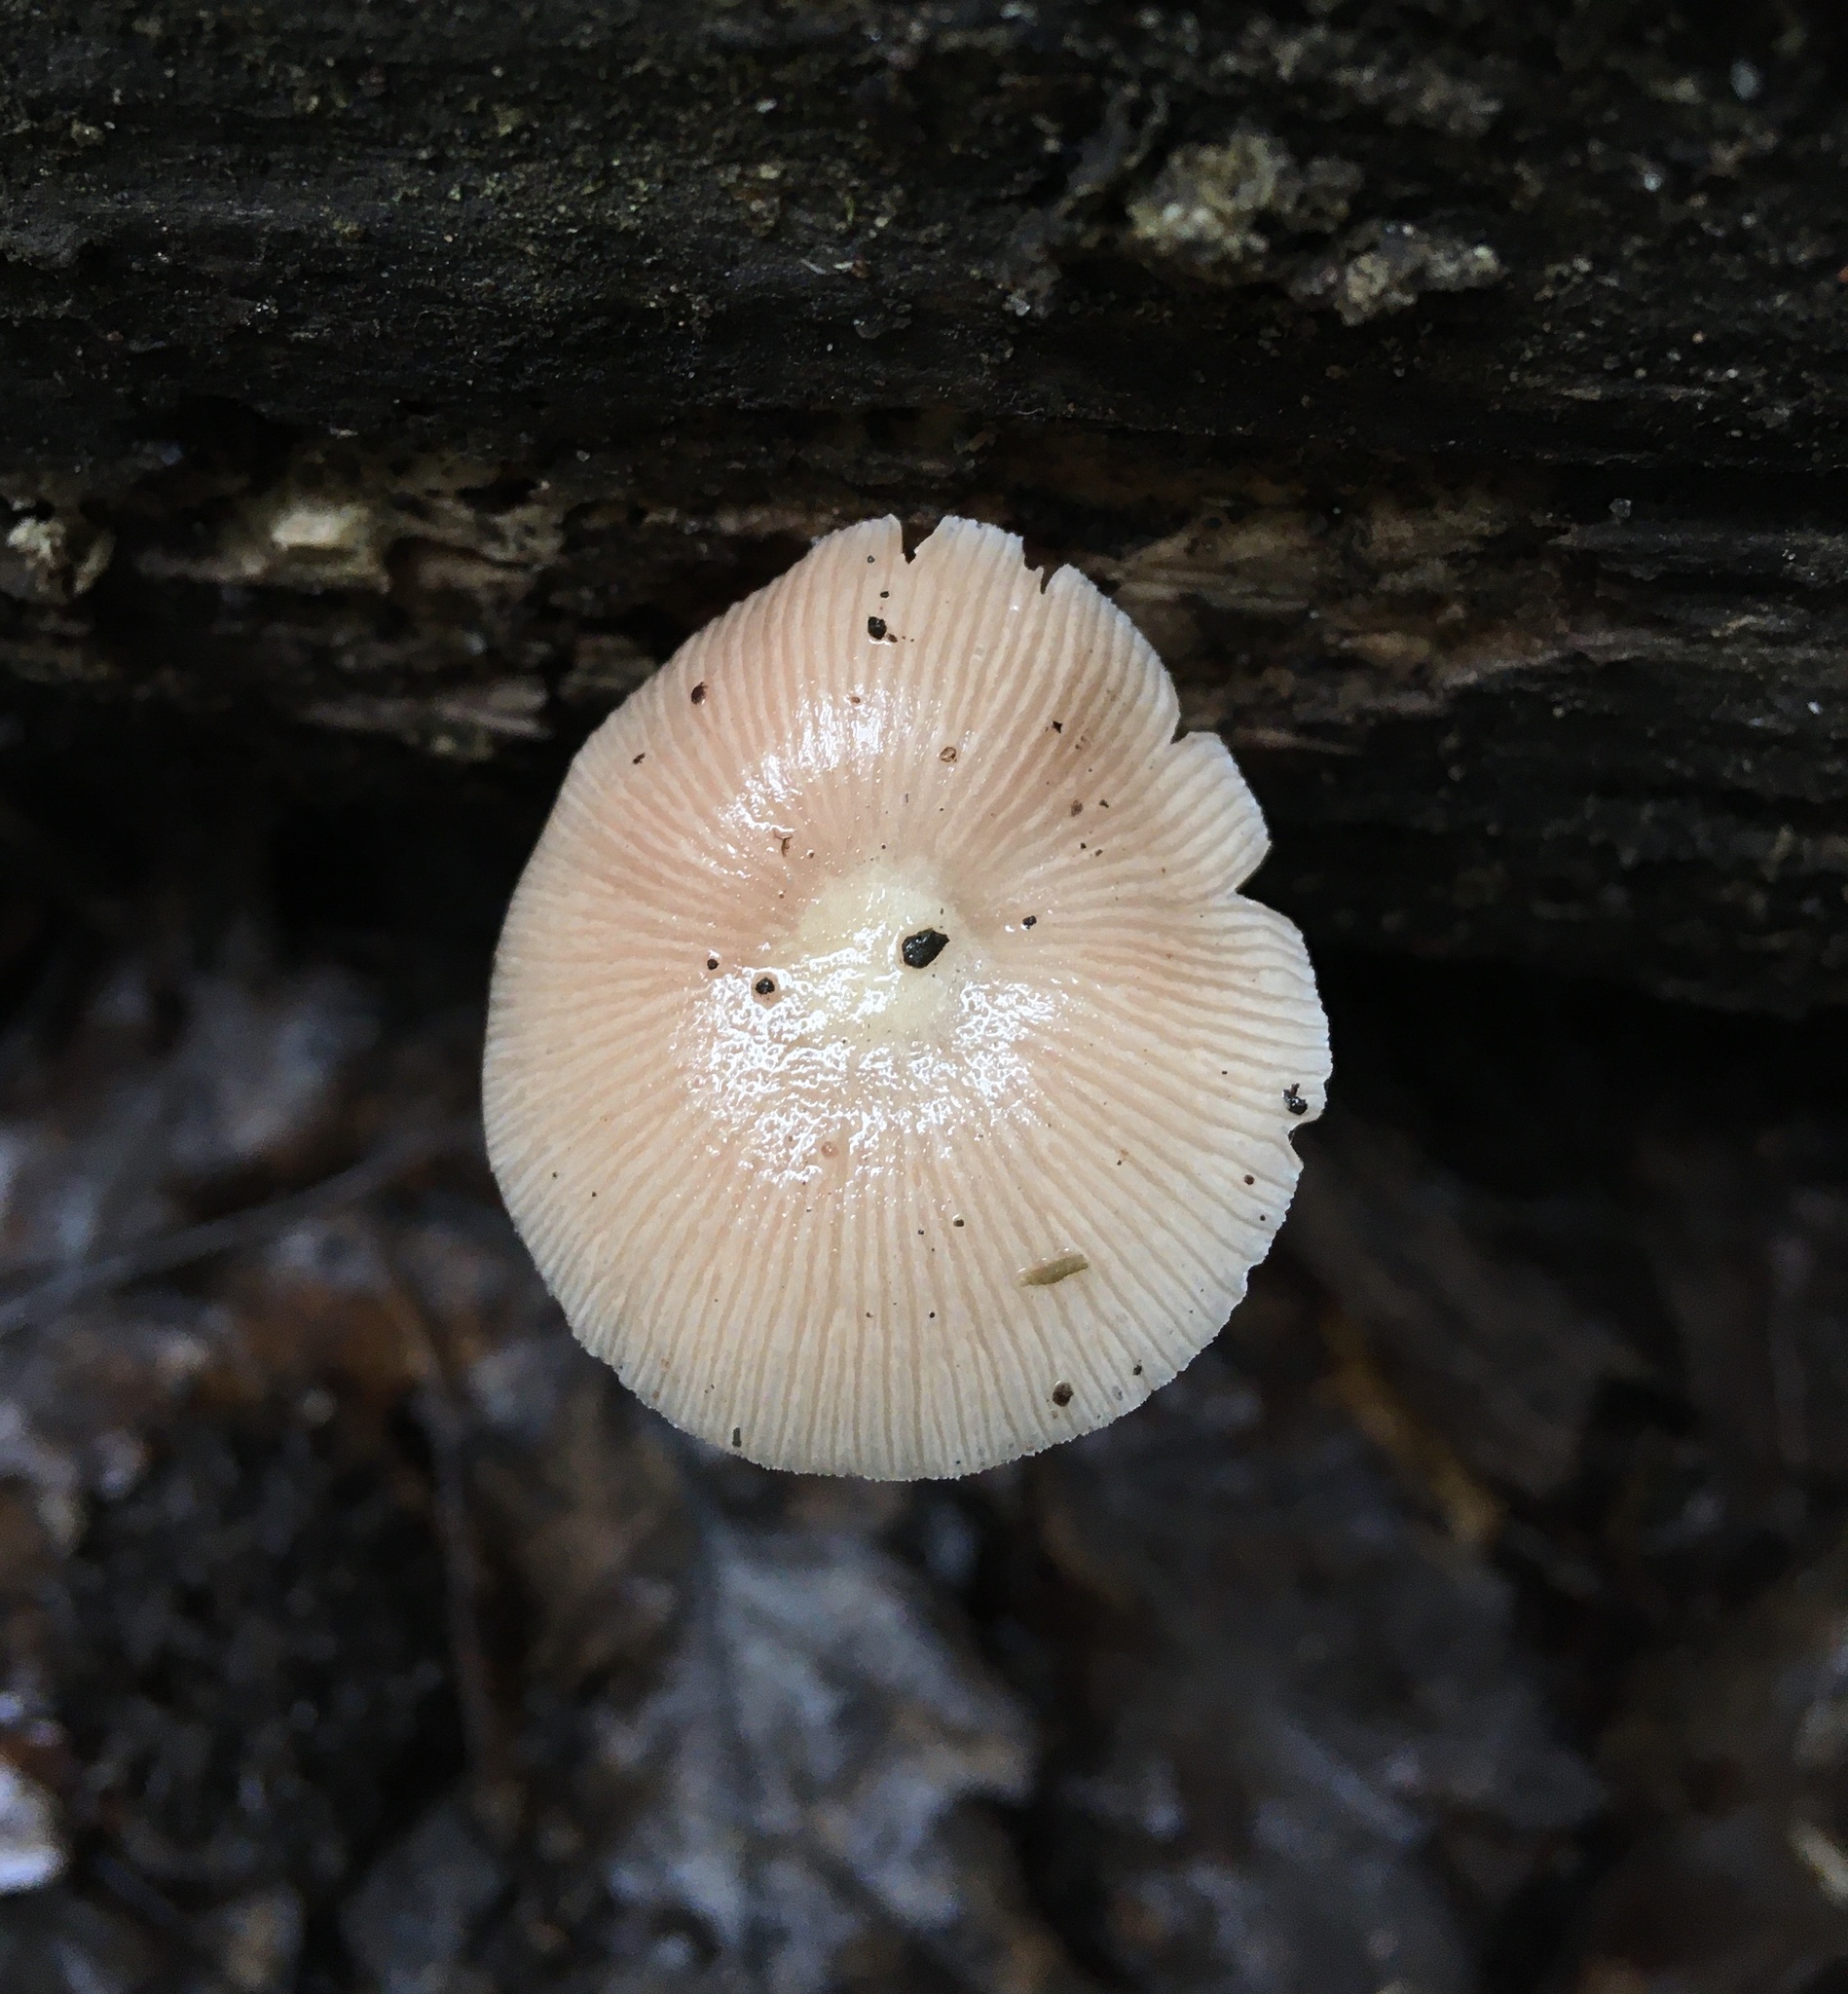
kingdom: Fungi
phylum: Basidiomycota
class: Agaricomycetes
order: Agaricales
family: Bolbitiaceae
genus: Bolbitius
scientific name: Bolbitius reticulatus
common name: Netted fieldcap
